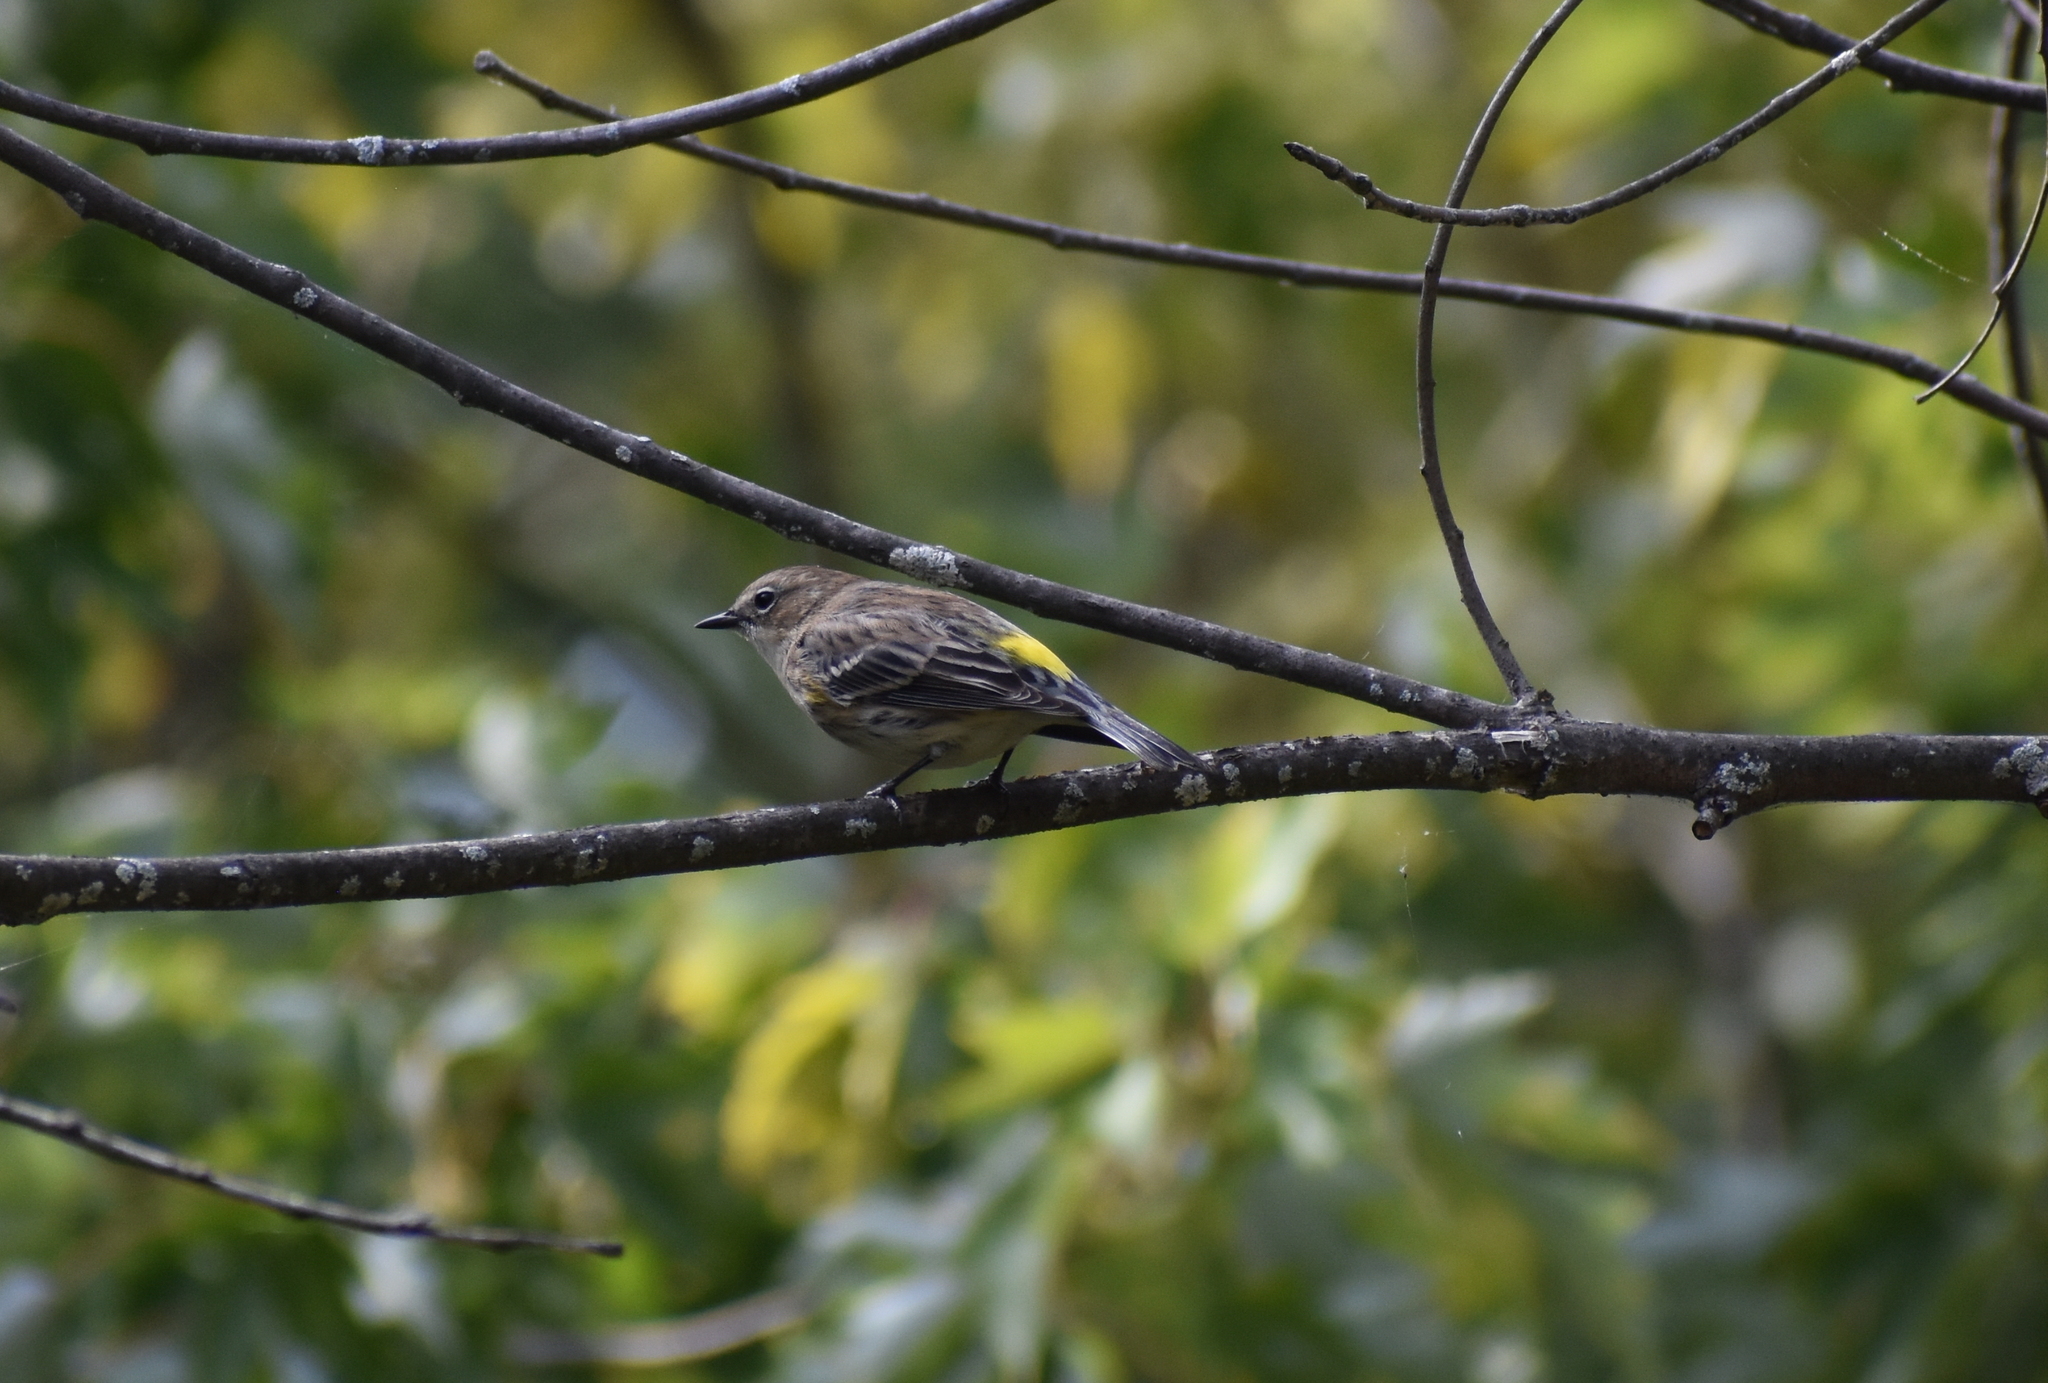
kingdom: Animalia
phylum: Chordata
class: Aves
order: Passeriformes
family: Parulidae
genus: Setophaga
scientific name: Setophaga coronata
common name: Myrtle warbler
